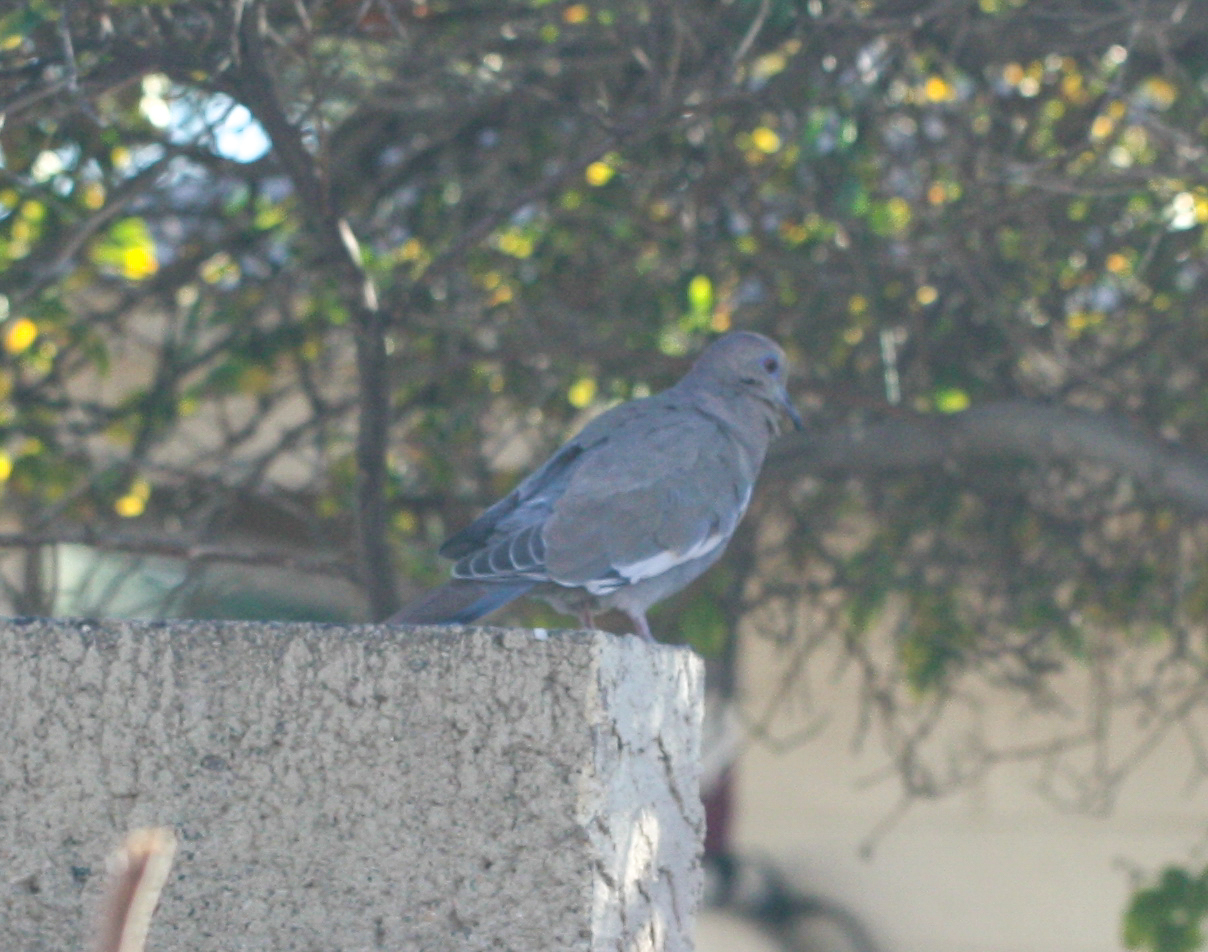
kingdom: Animalia
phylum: Chordata
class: Aves
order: Columbiformes
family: Columbidae
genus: Zenaida
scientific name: Zenaida asiatica
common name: White-winged dove
